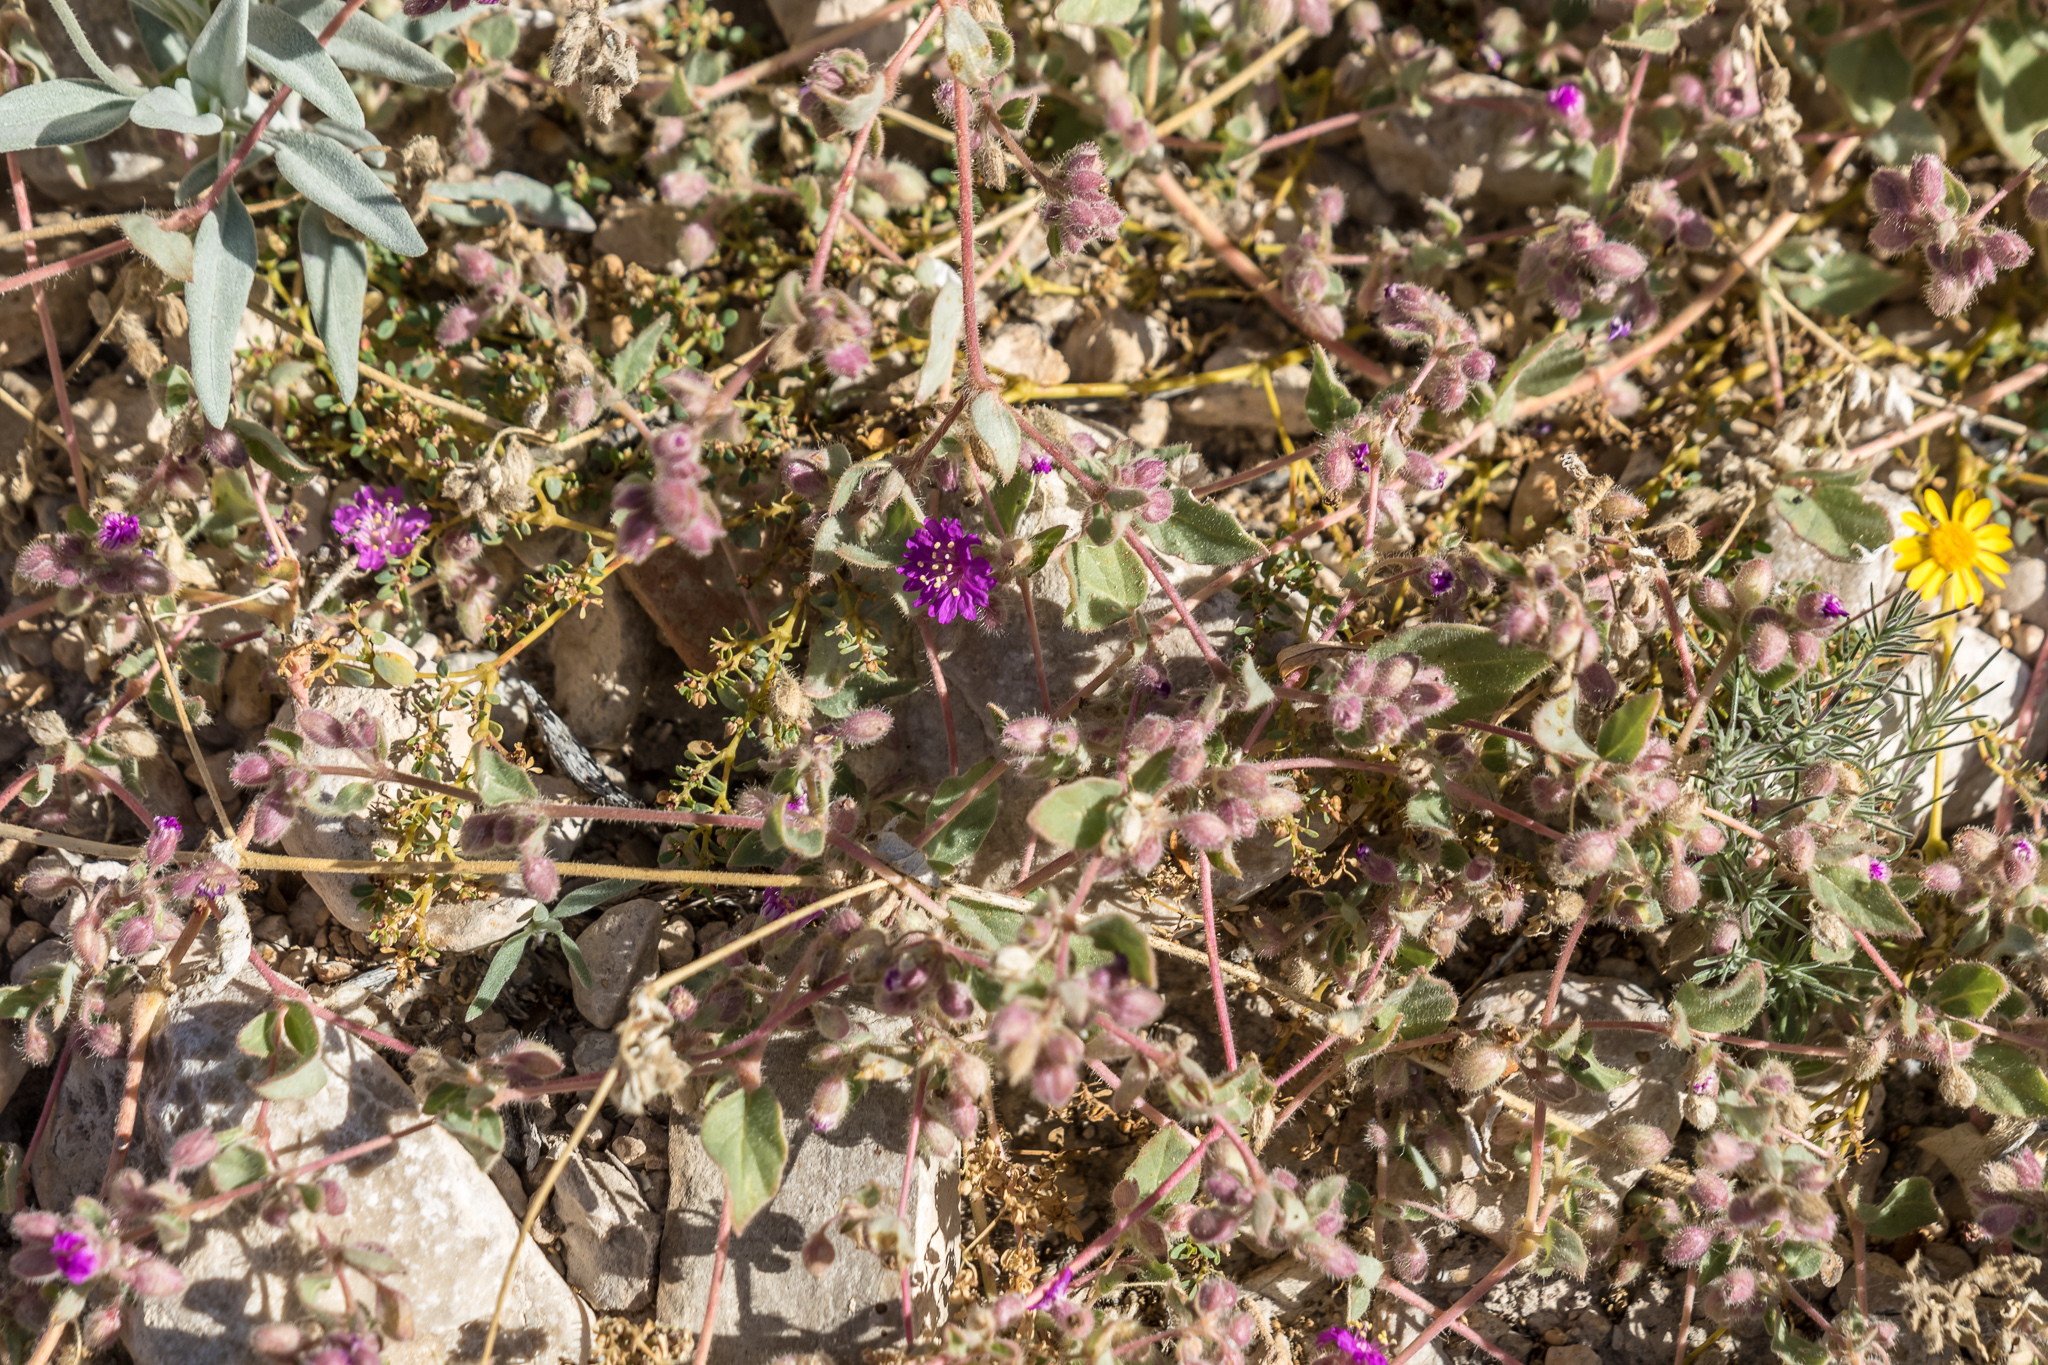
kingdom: Plantae
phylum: Tracheophyta
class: Magnoliopsida
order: Caryophyllales
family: Nyctaginaceae
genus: Allionia
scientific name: Allionia incarnata
